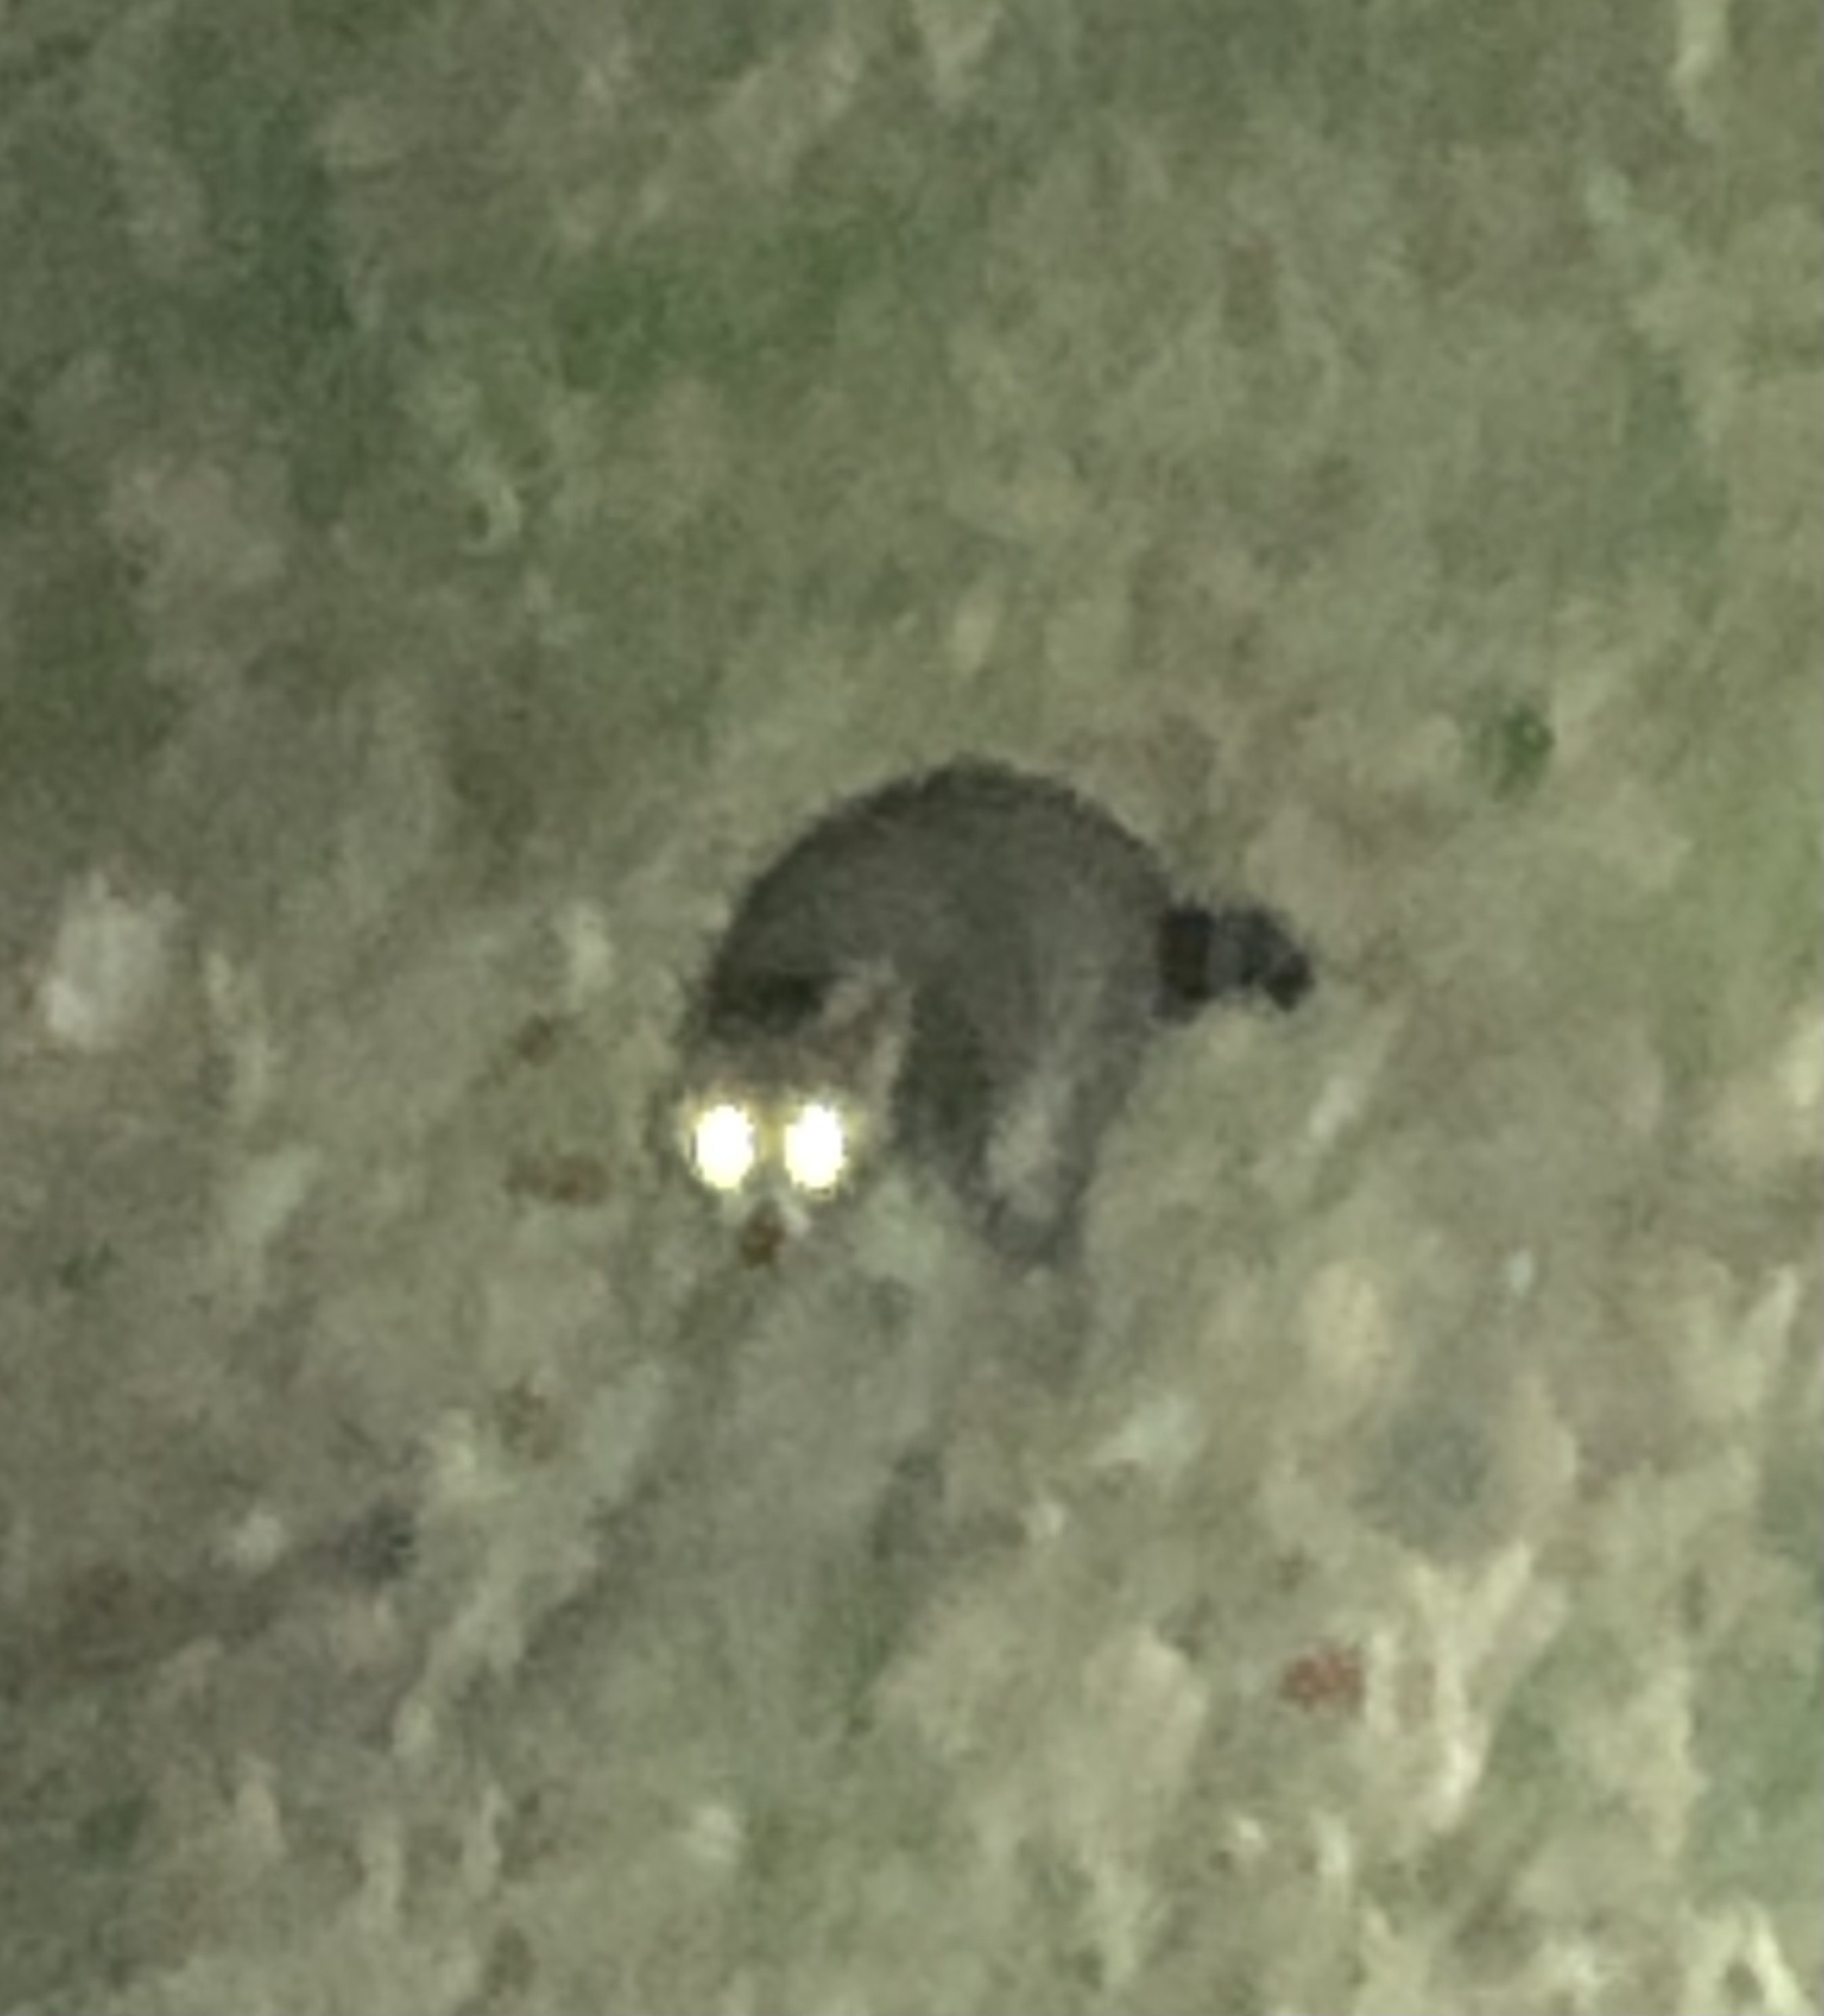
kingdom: Animalia
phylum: Chordata
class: Mammalia
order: Carnivora
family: Procyonidae
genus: Procyon
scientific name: Procyon lotor
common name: Raccoon
